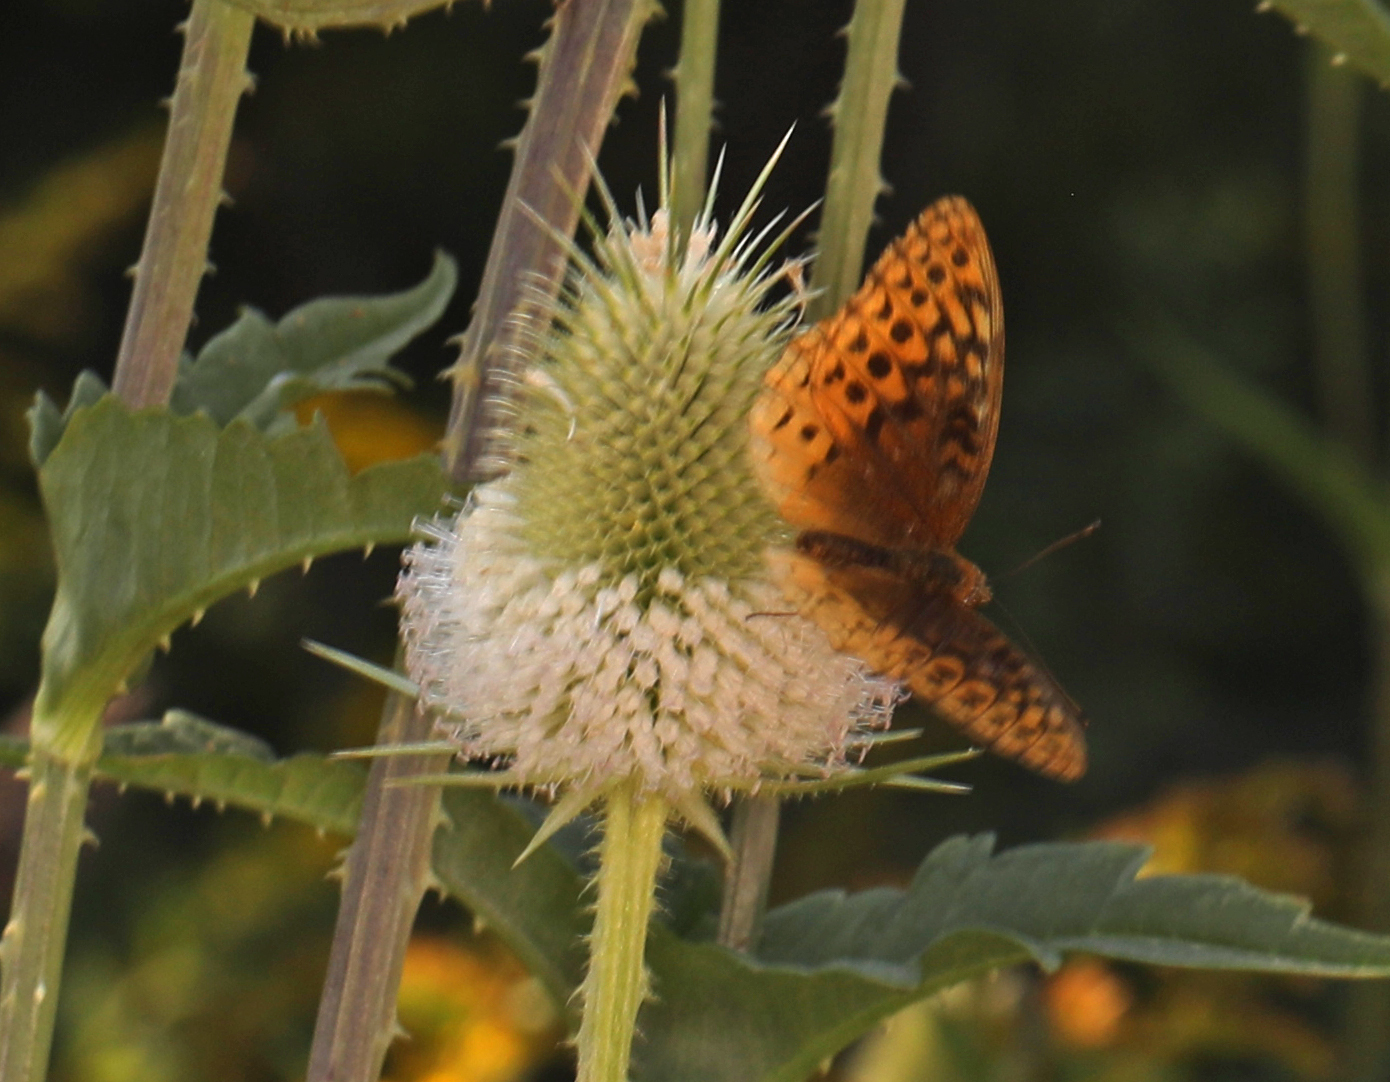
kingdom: Animalia
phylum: Arthropoda
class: Insecta
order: Lepidoptera
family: Nymphalidae
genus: Speyeria
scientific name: Speyeria cybele
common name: Great spangled fritillary
